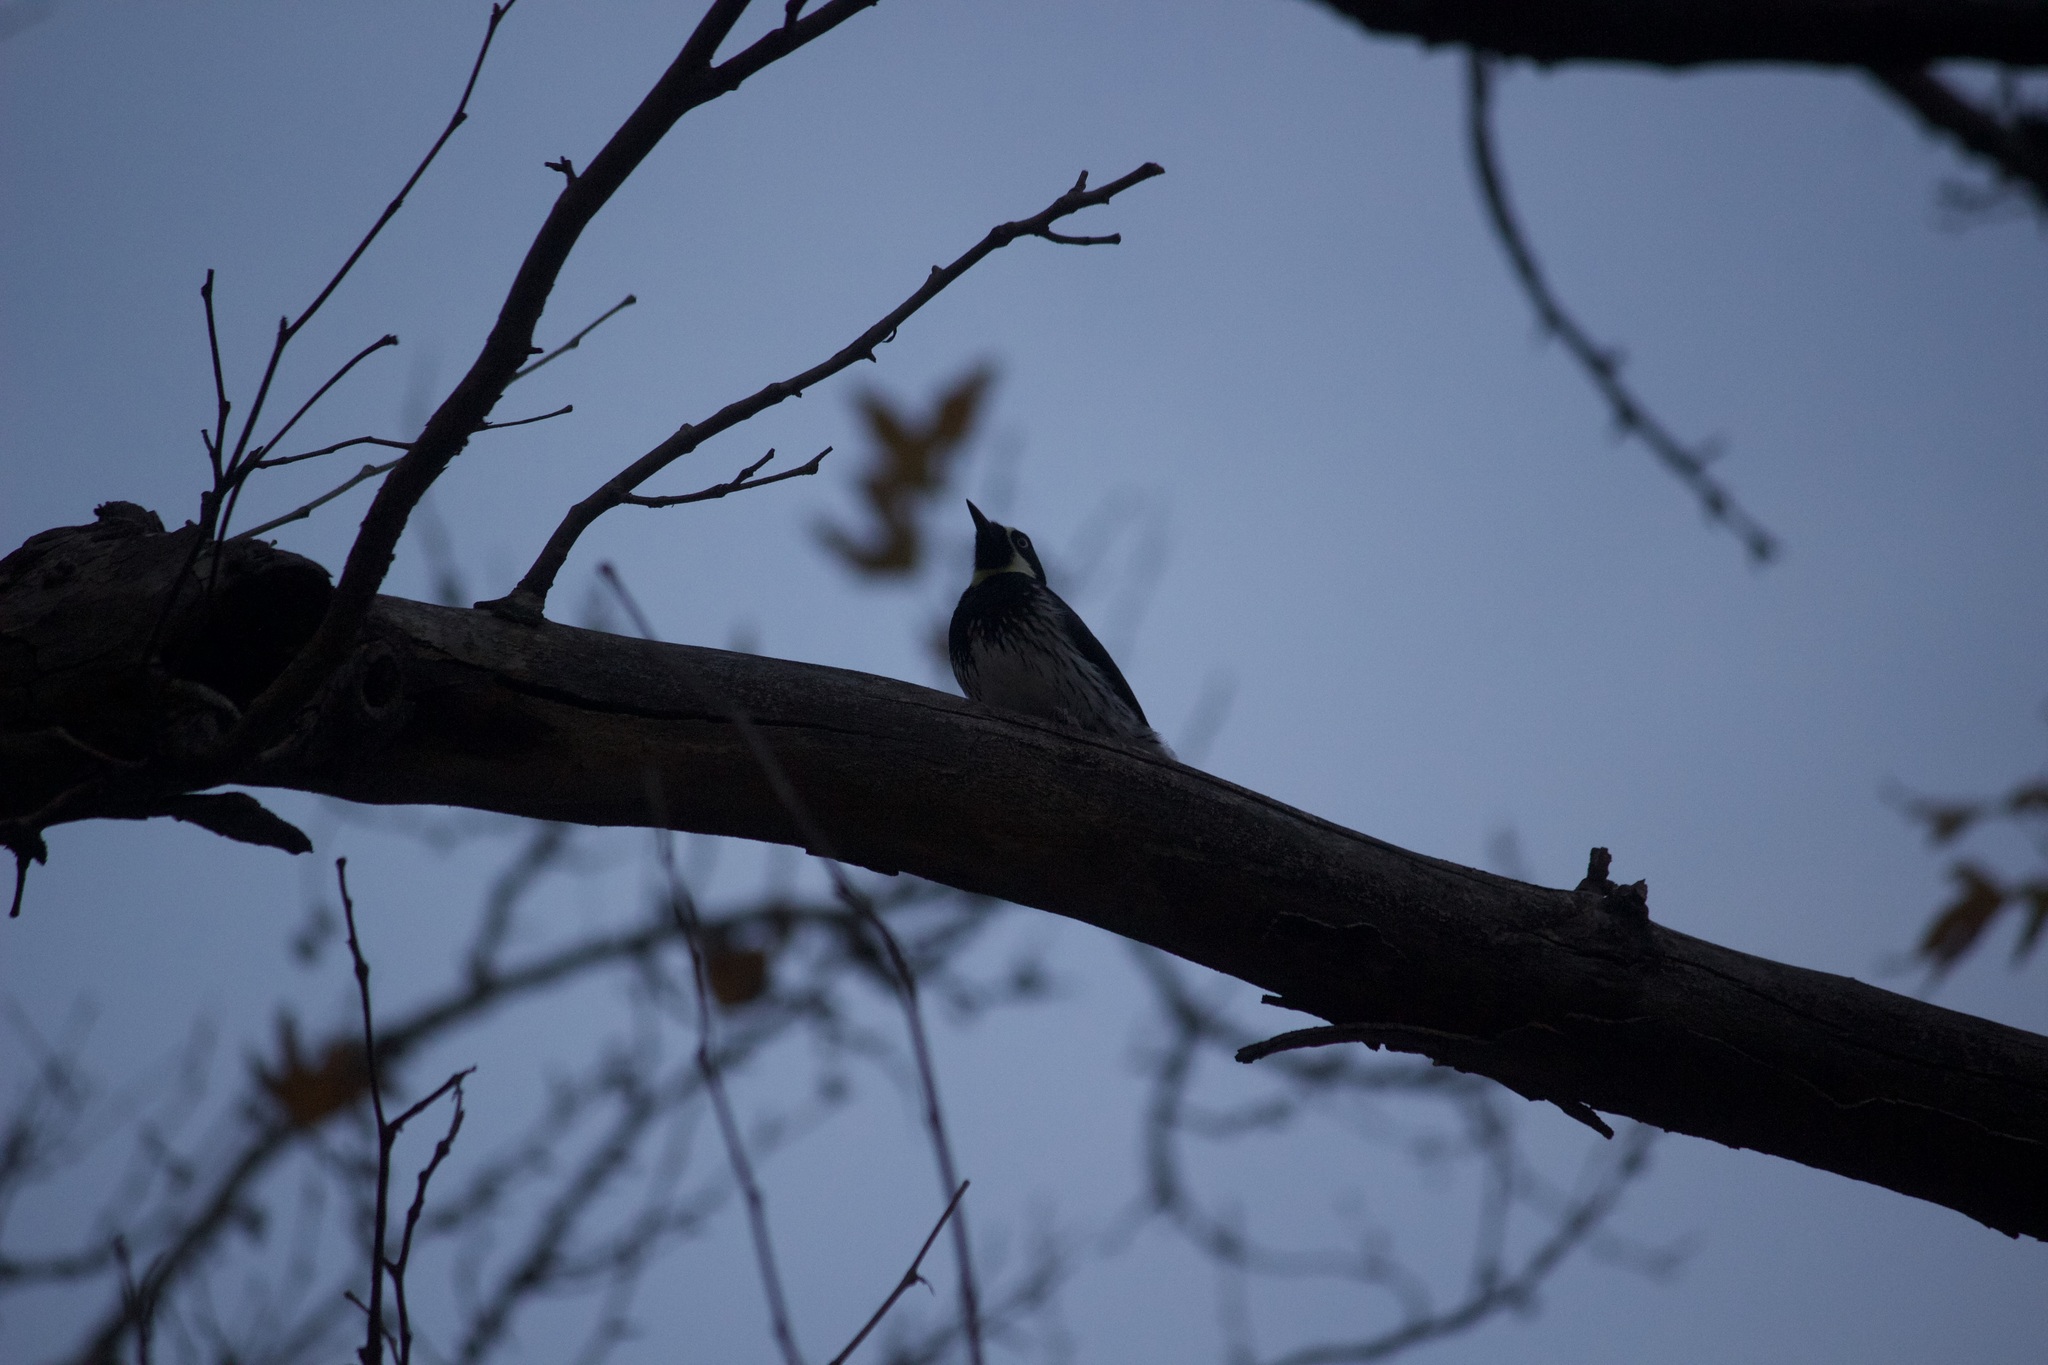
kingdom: Animalia
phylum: Chordata
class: Aves
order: Piciformes
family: Picidae
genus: Melanerpes
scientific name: Melanerpes formicivorus
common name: Acorn woodpecker
